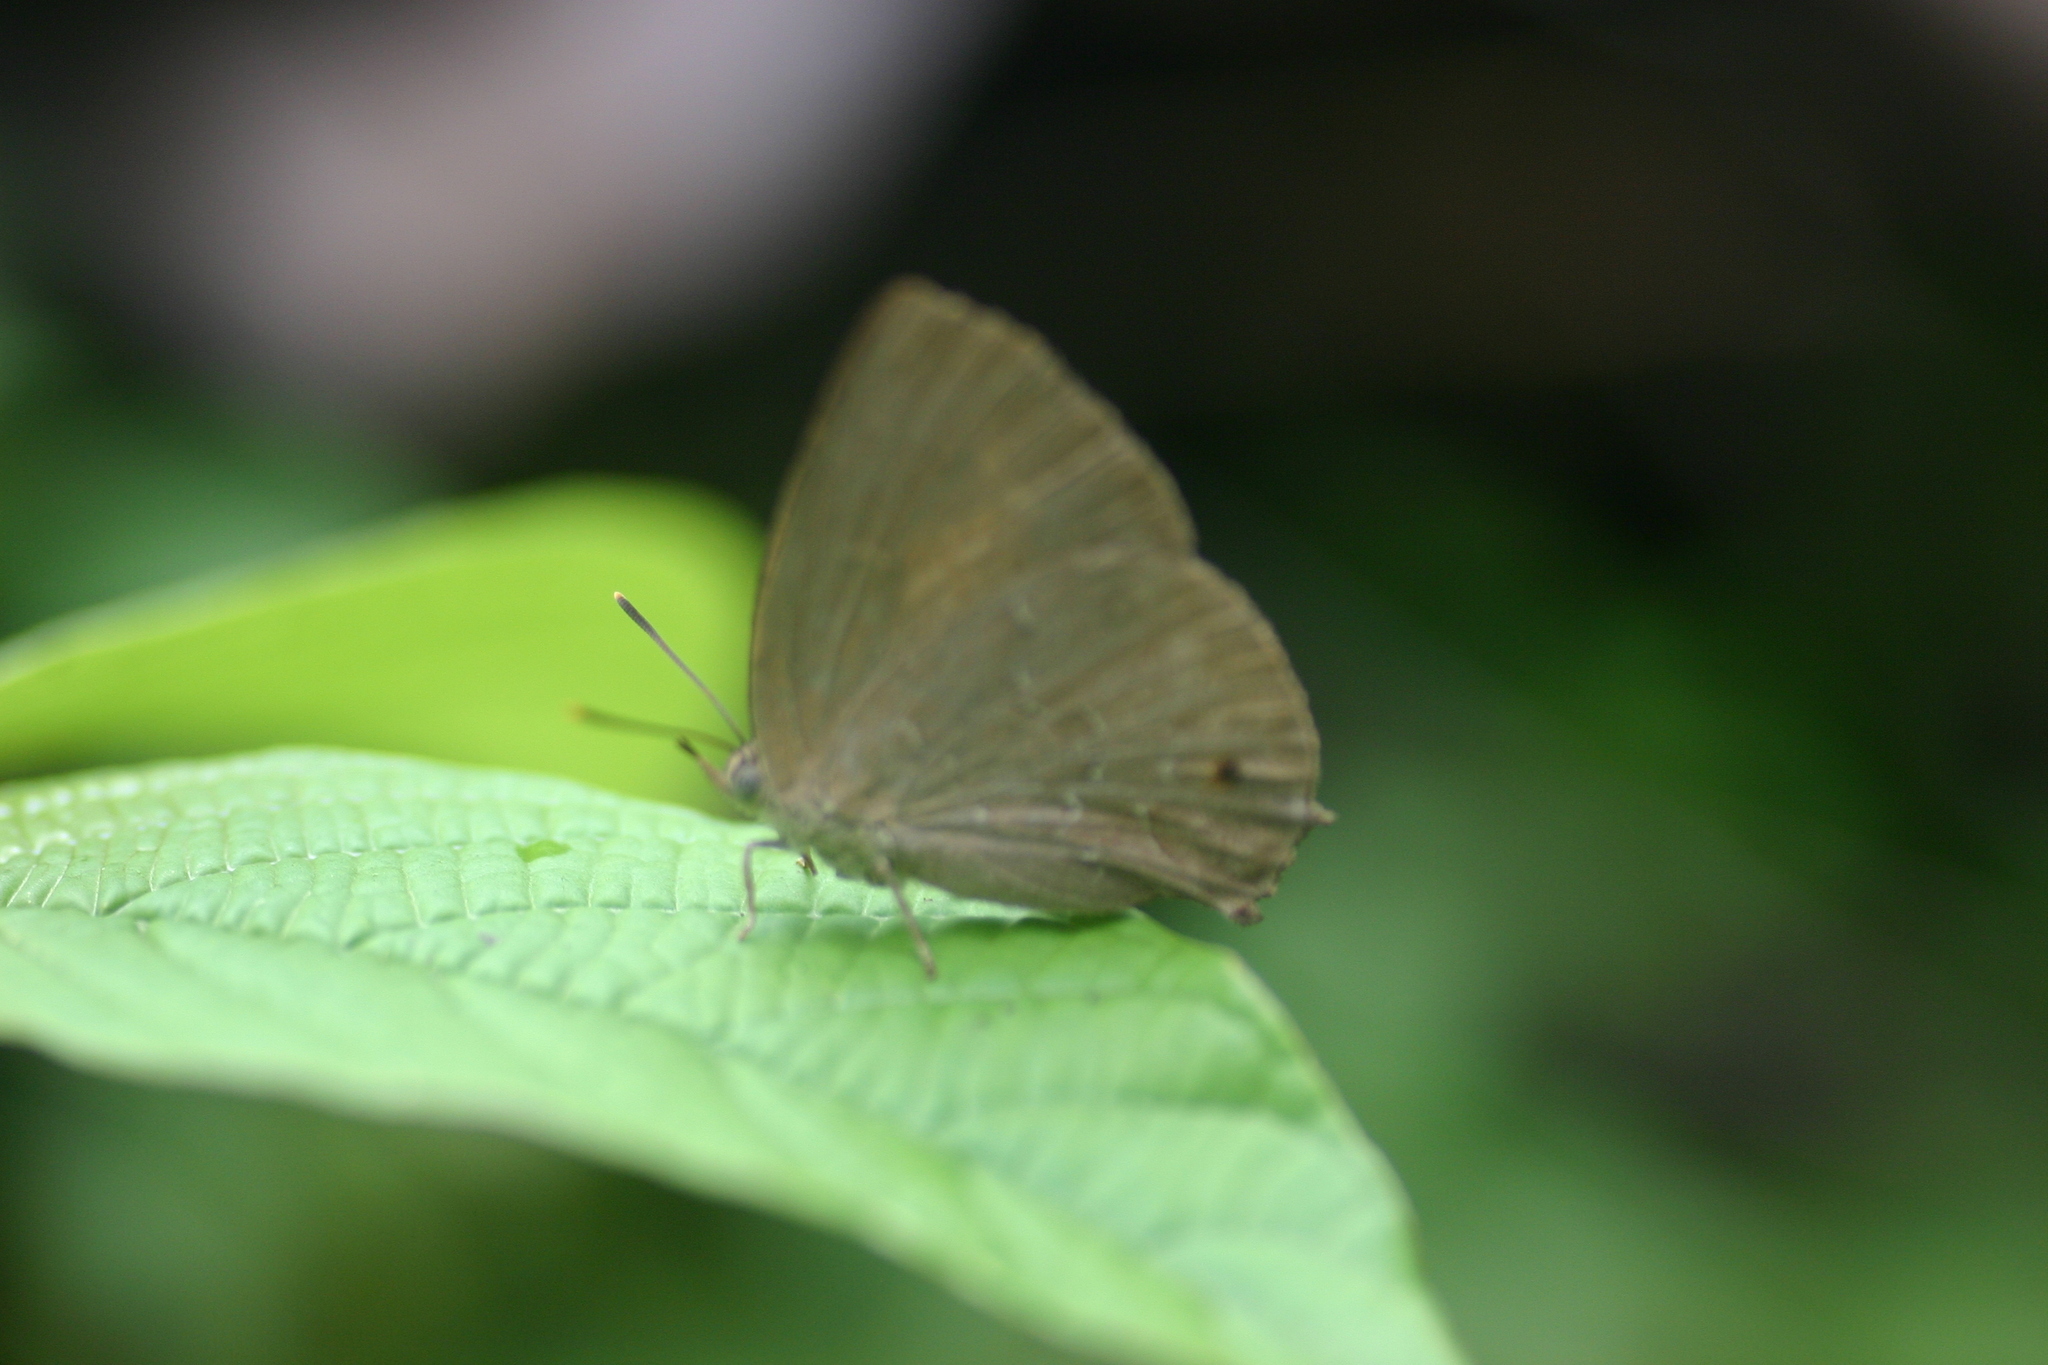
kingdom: Animalia
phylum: Arthropoda
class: Insecta
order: Lepidoptera
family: Lycaenidae
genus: Surendra
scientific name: Surendra quercetorum
